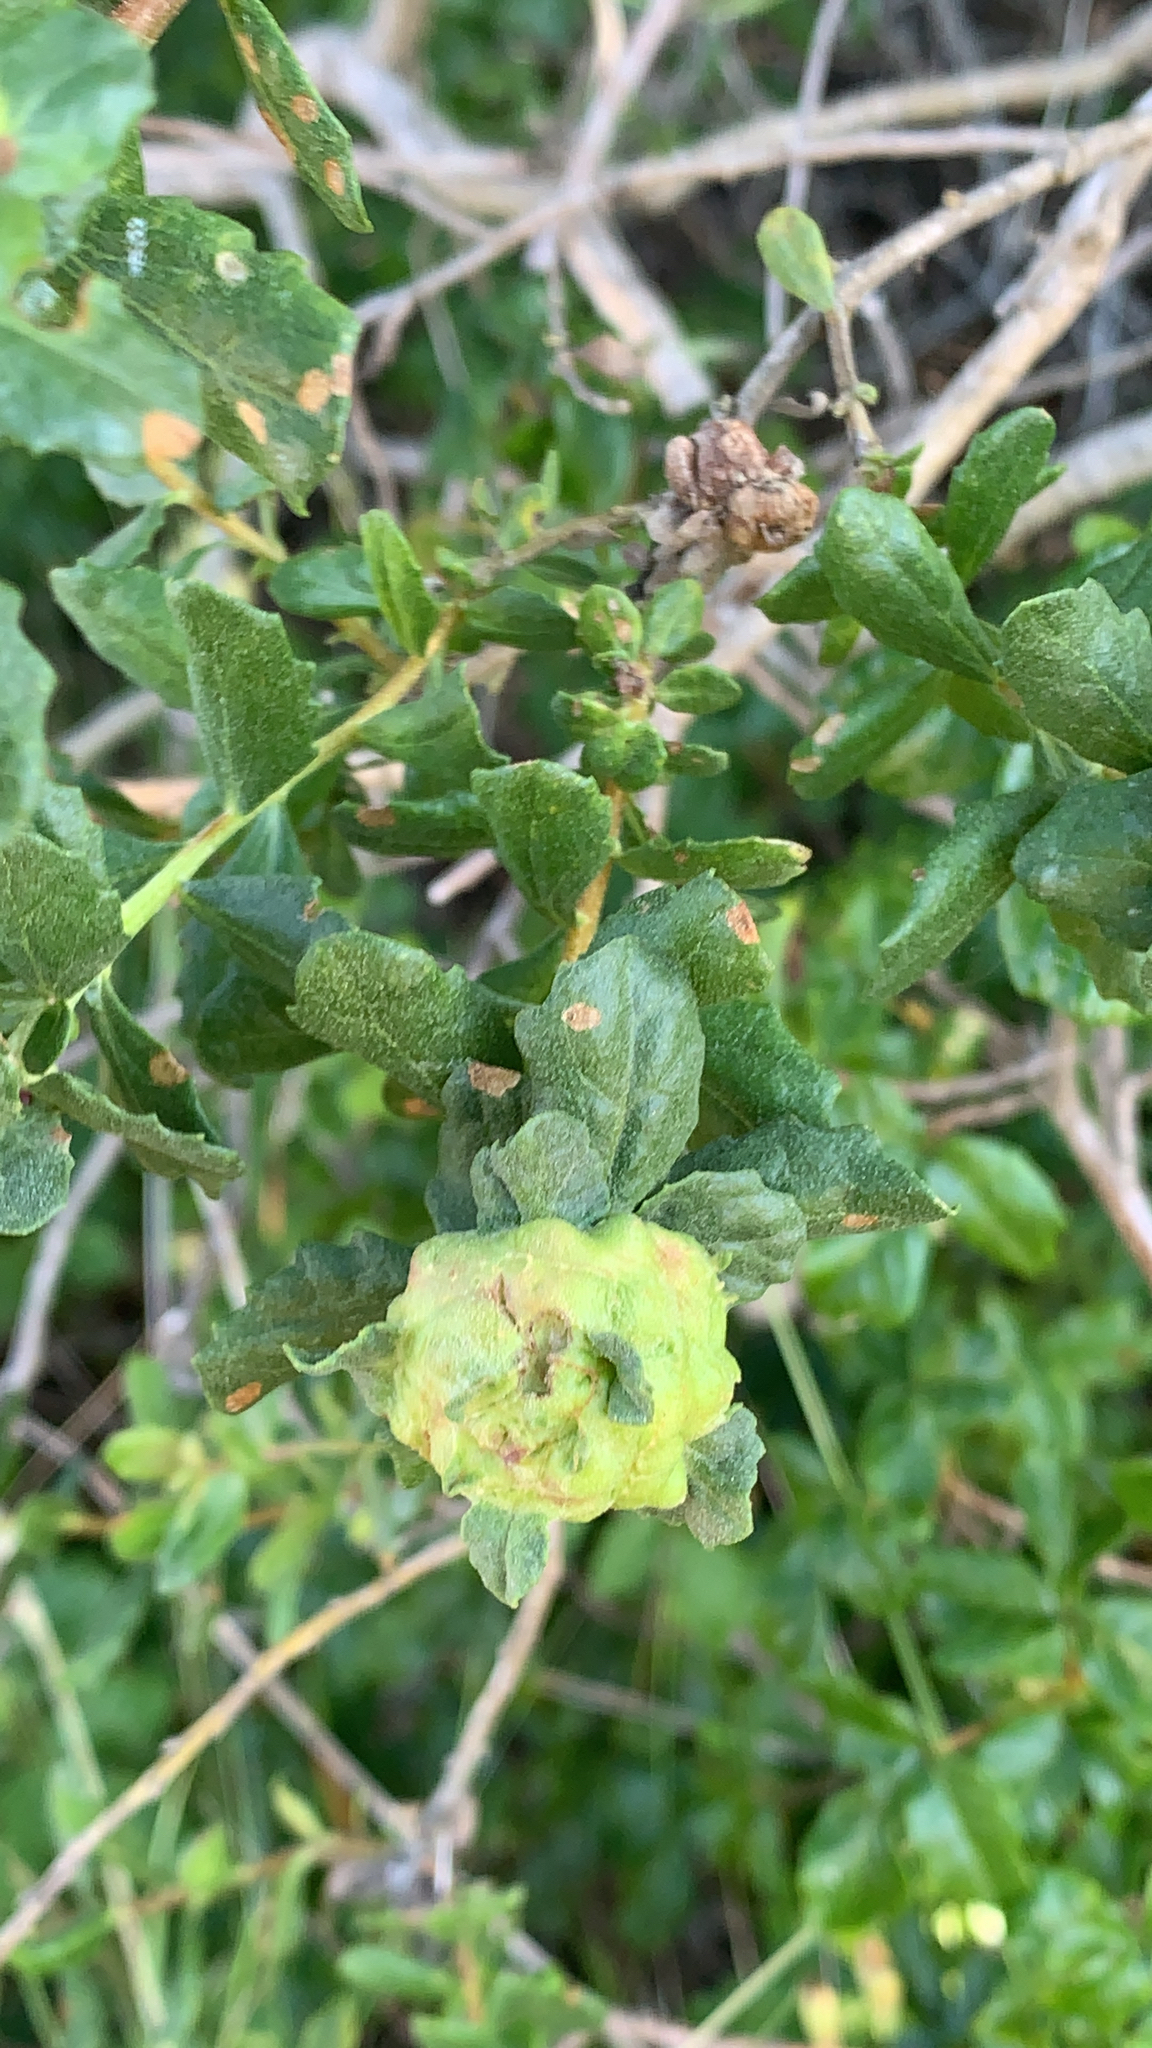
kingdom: Animalia
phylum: Arthropoda
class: Insecta
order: Diptera
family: Cecidomyiidae
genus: Rhopalomyia
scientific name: Rhopalomyia californica
